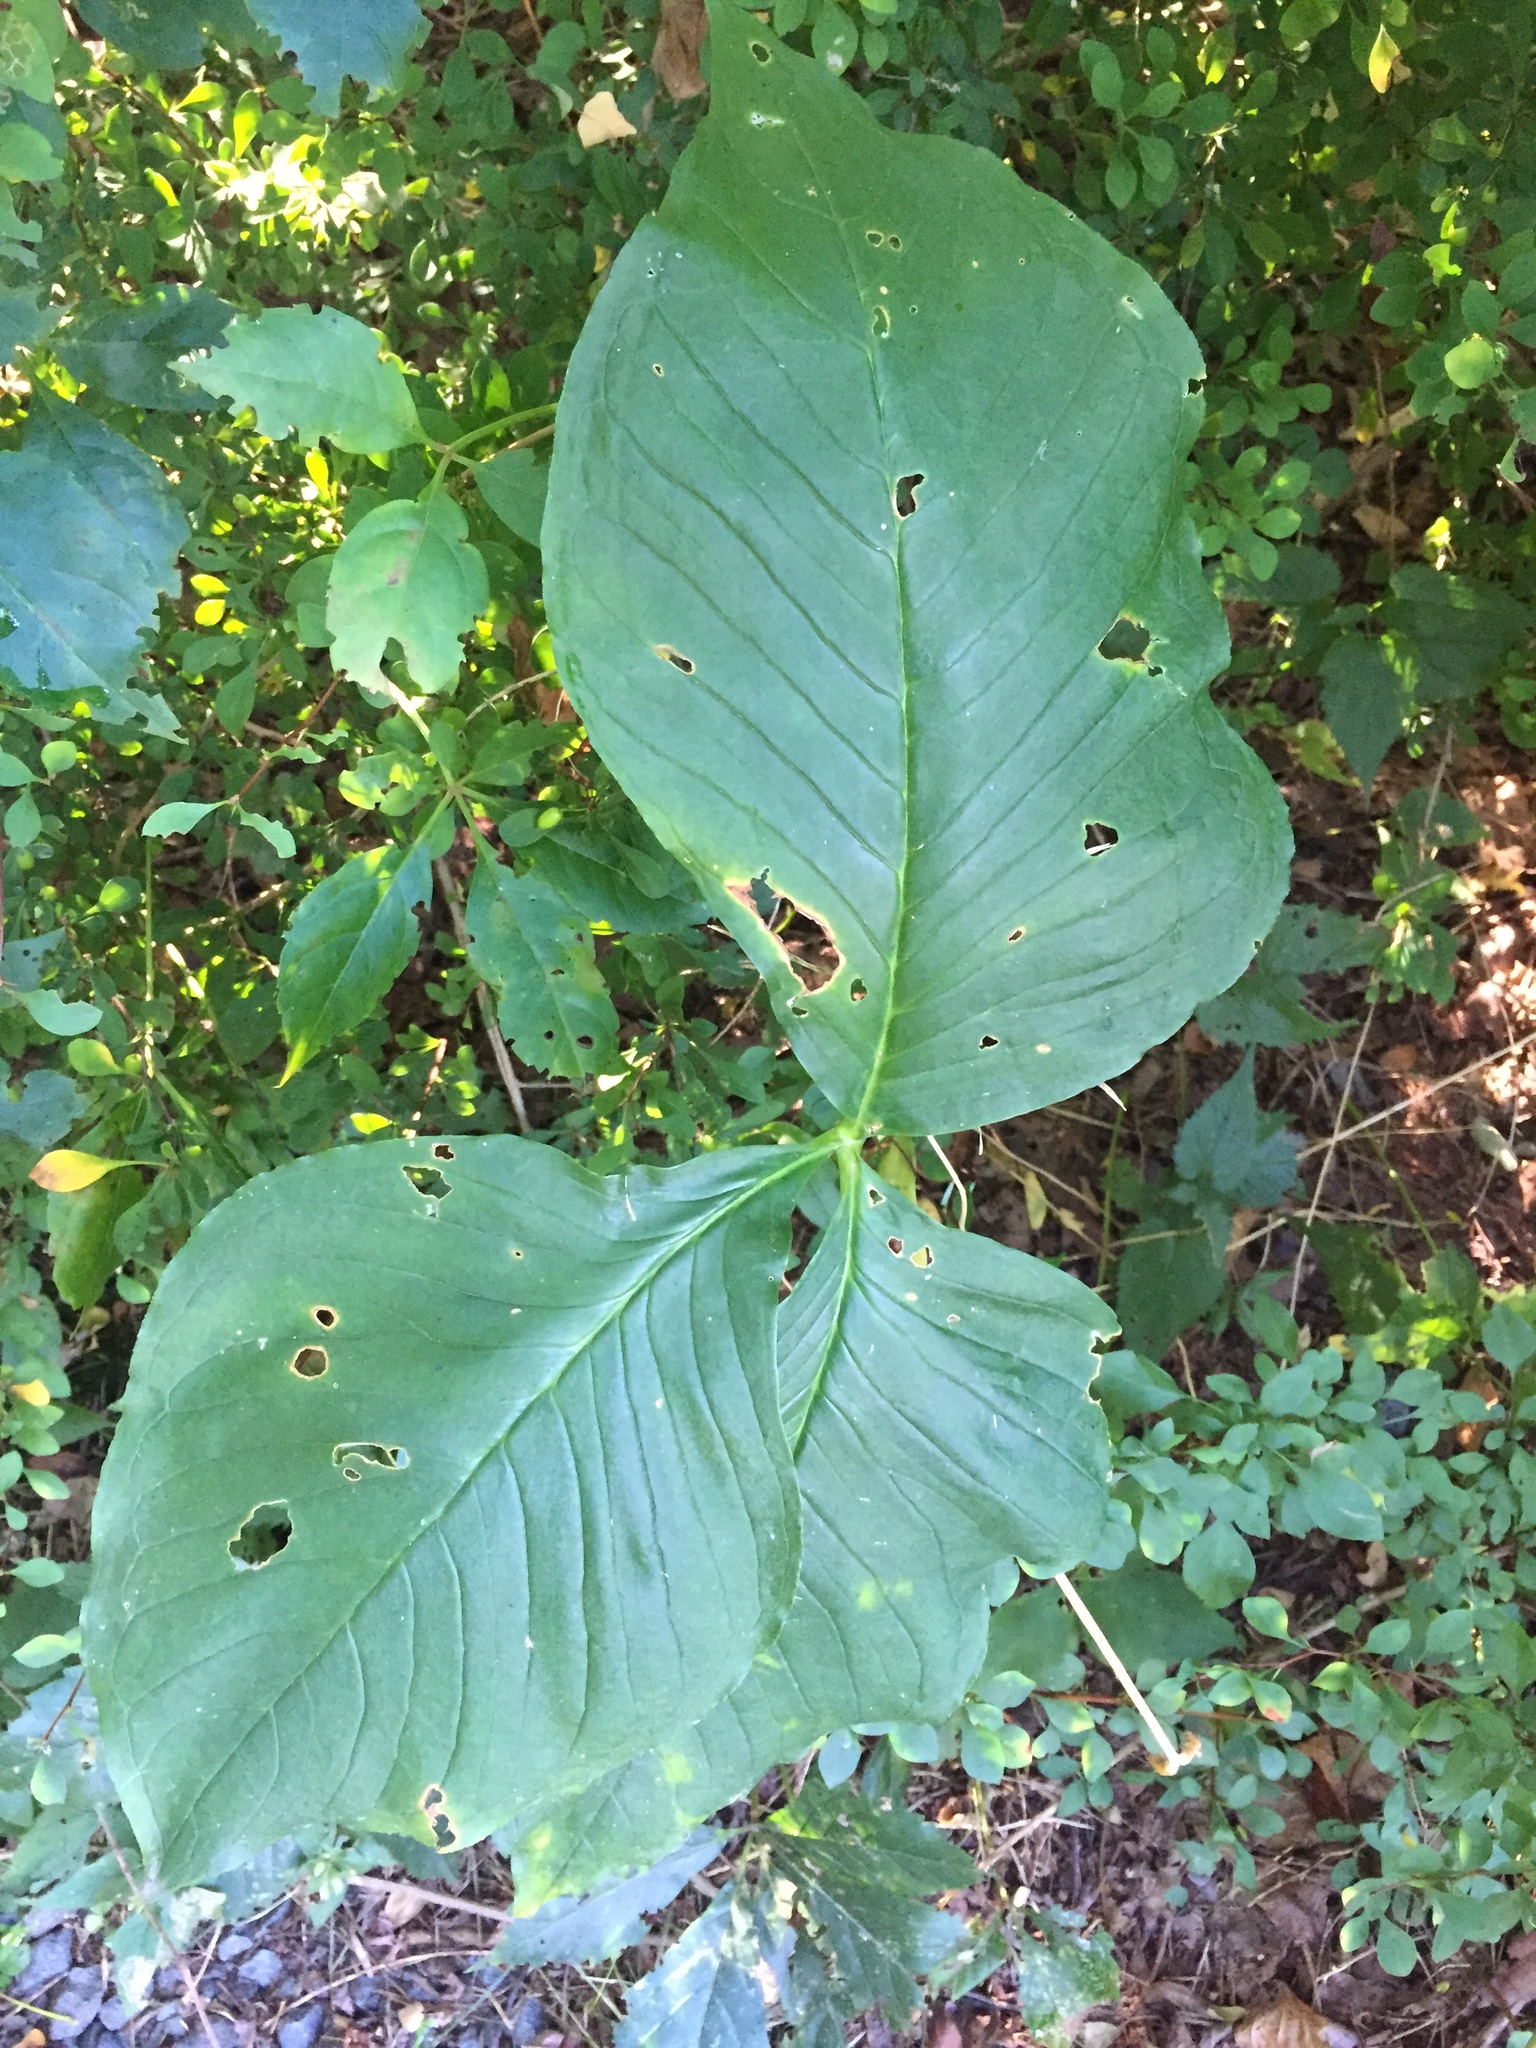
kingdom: Plantae
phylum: Tracheophyta
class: Liliopsida
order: Alismatales
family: Araceae
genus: Arisaema
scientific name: Arisaema triphyllum
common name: Jack-in-the-pulpit
